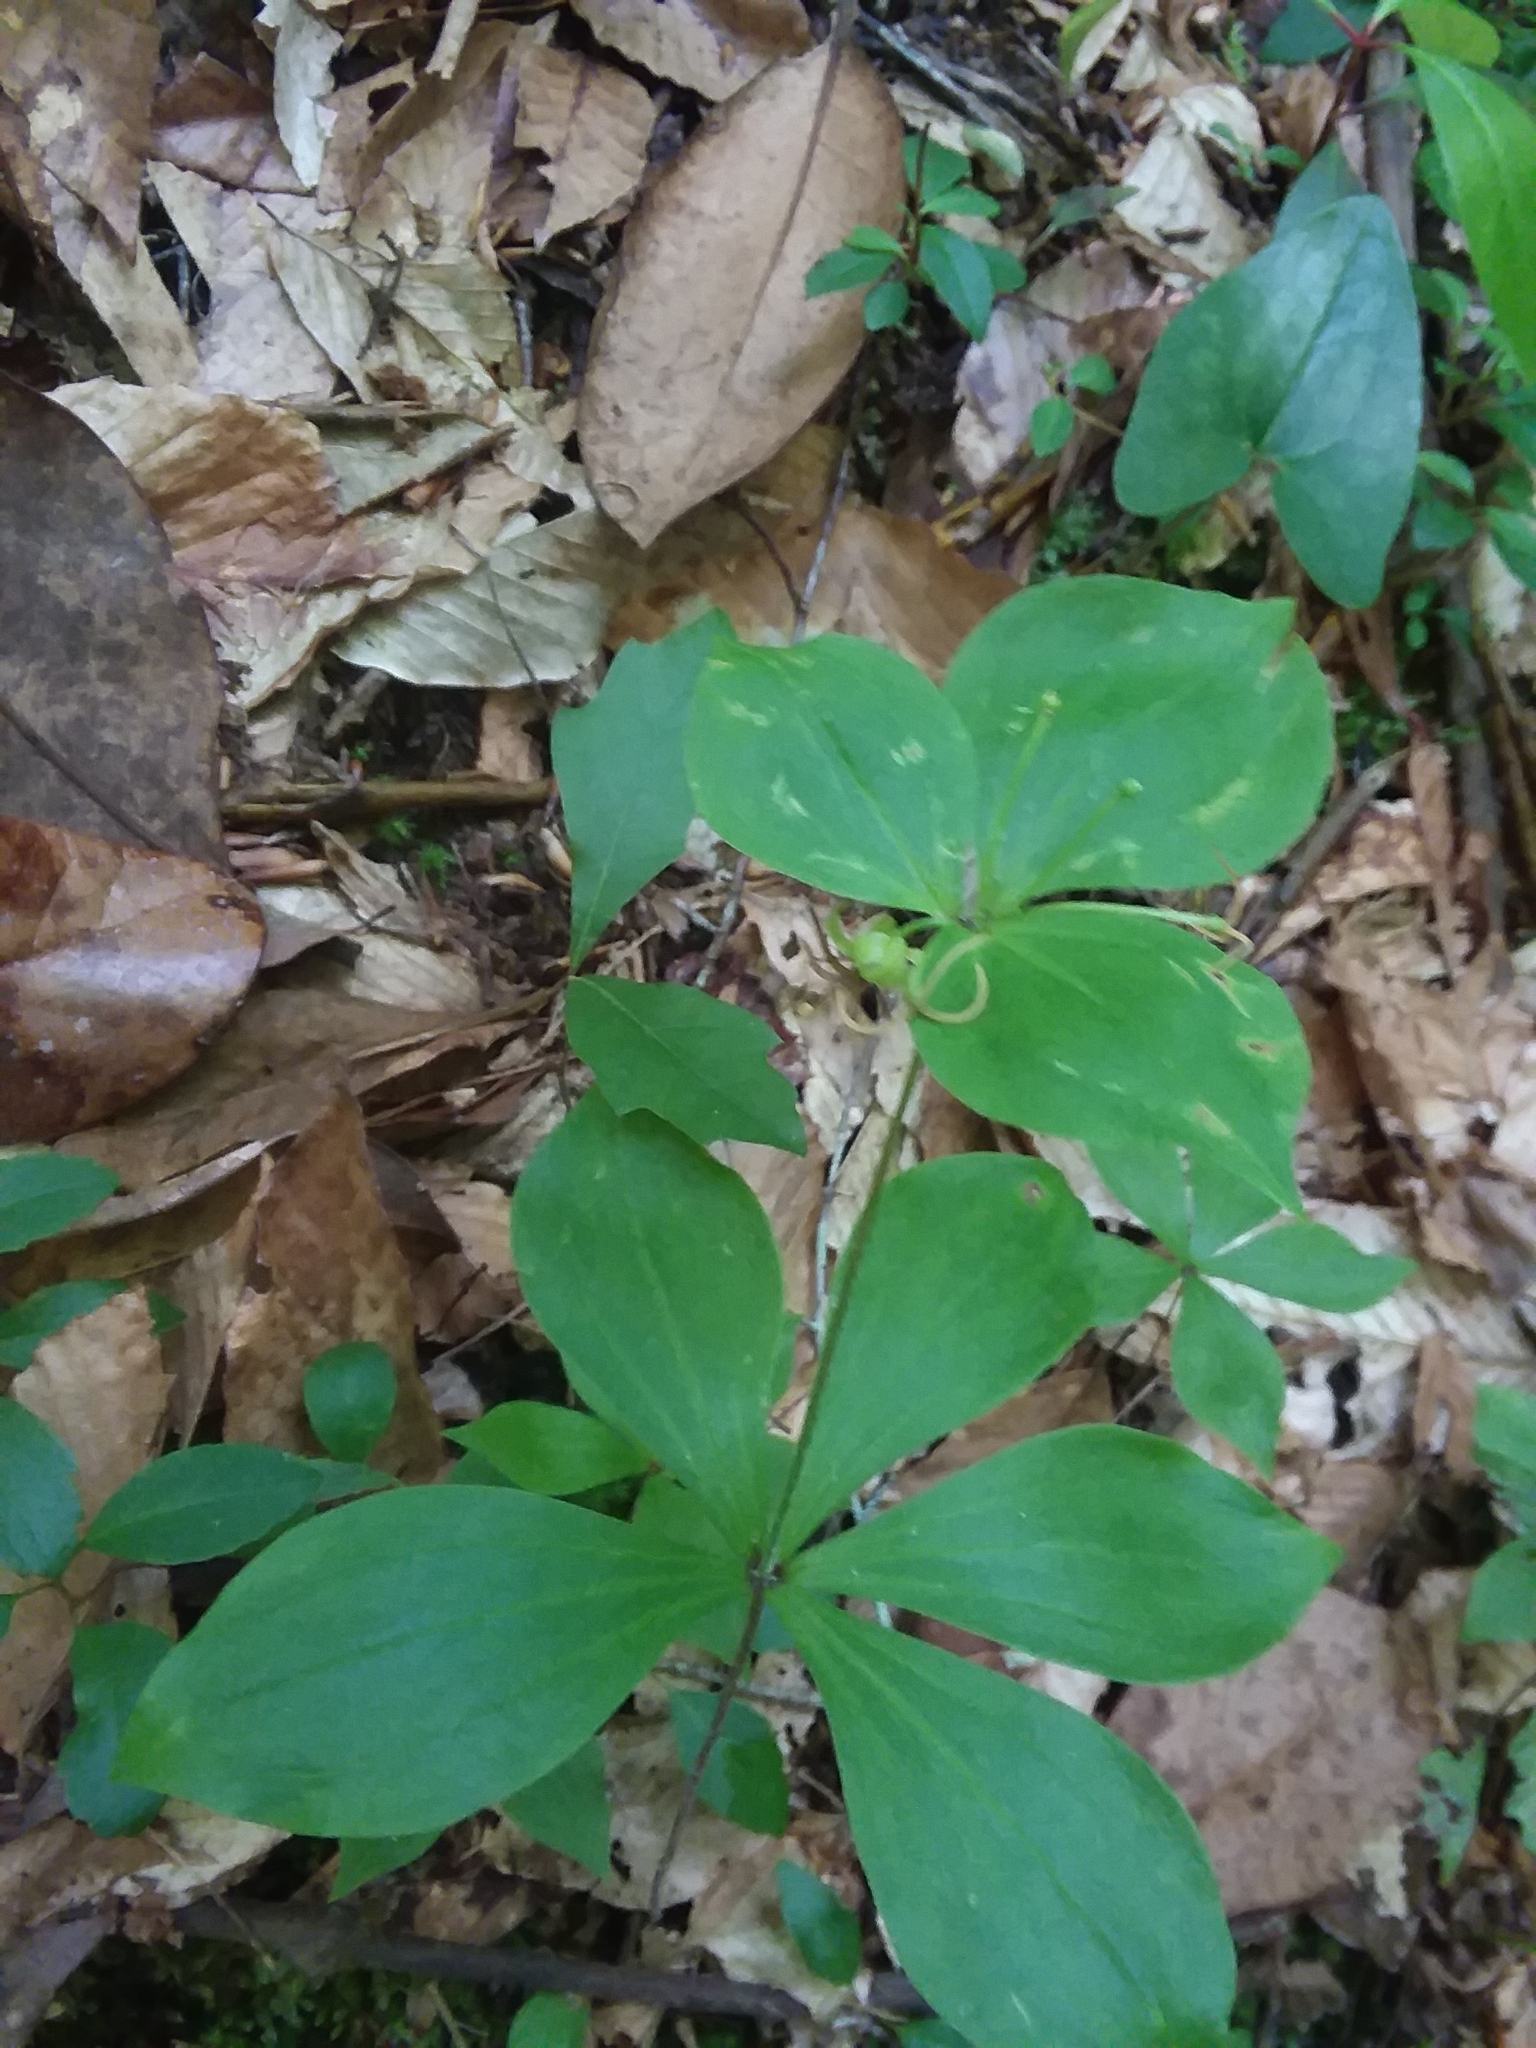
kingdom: Plantae
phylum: Tracheophyta
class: Liliopsida
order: Liliales
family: Liliaceae
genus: Medeola
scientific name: Medeola virginiana
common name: Indian cucumber-root
